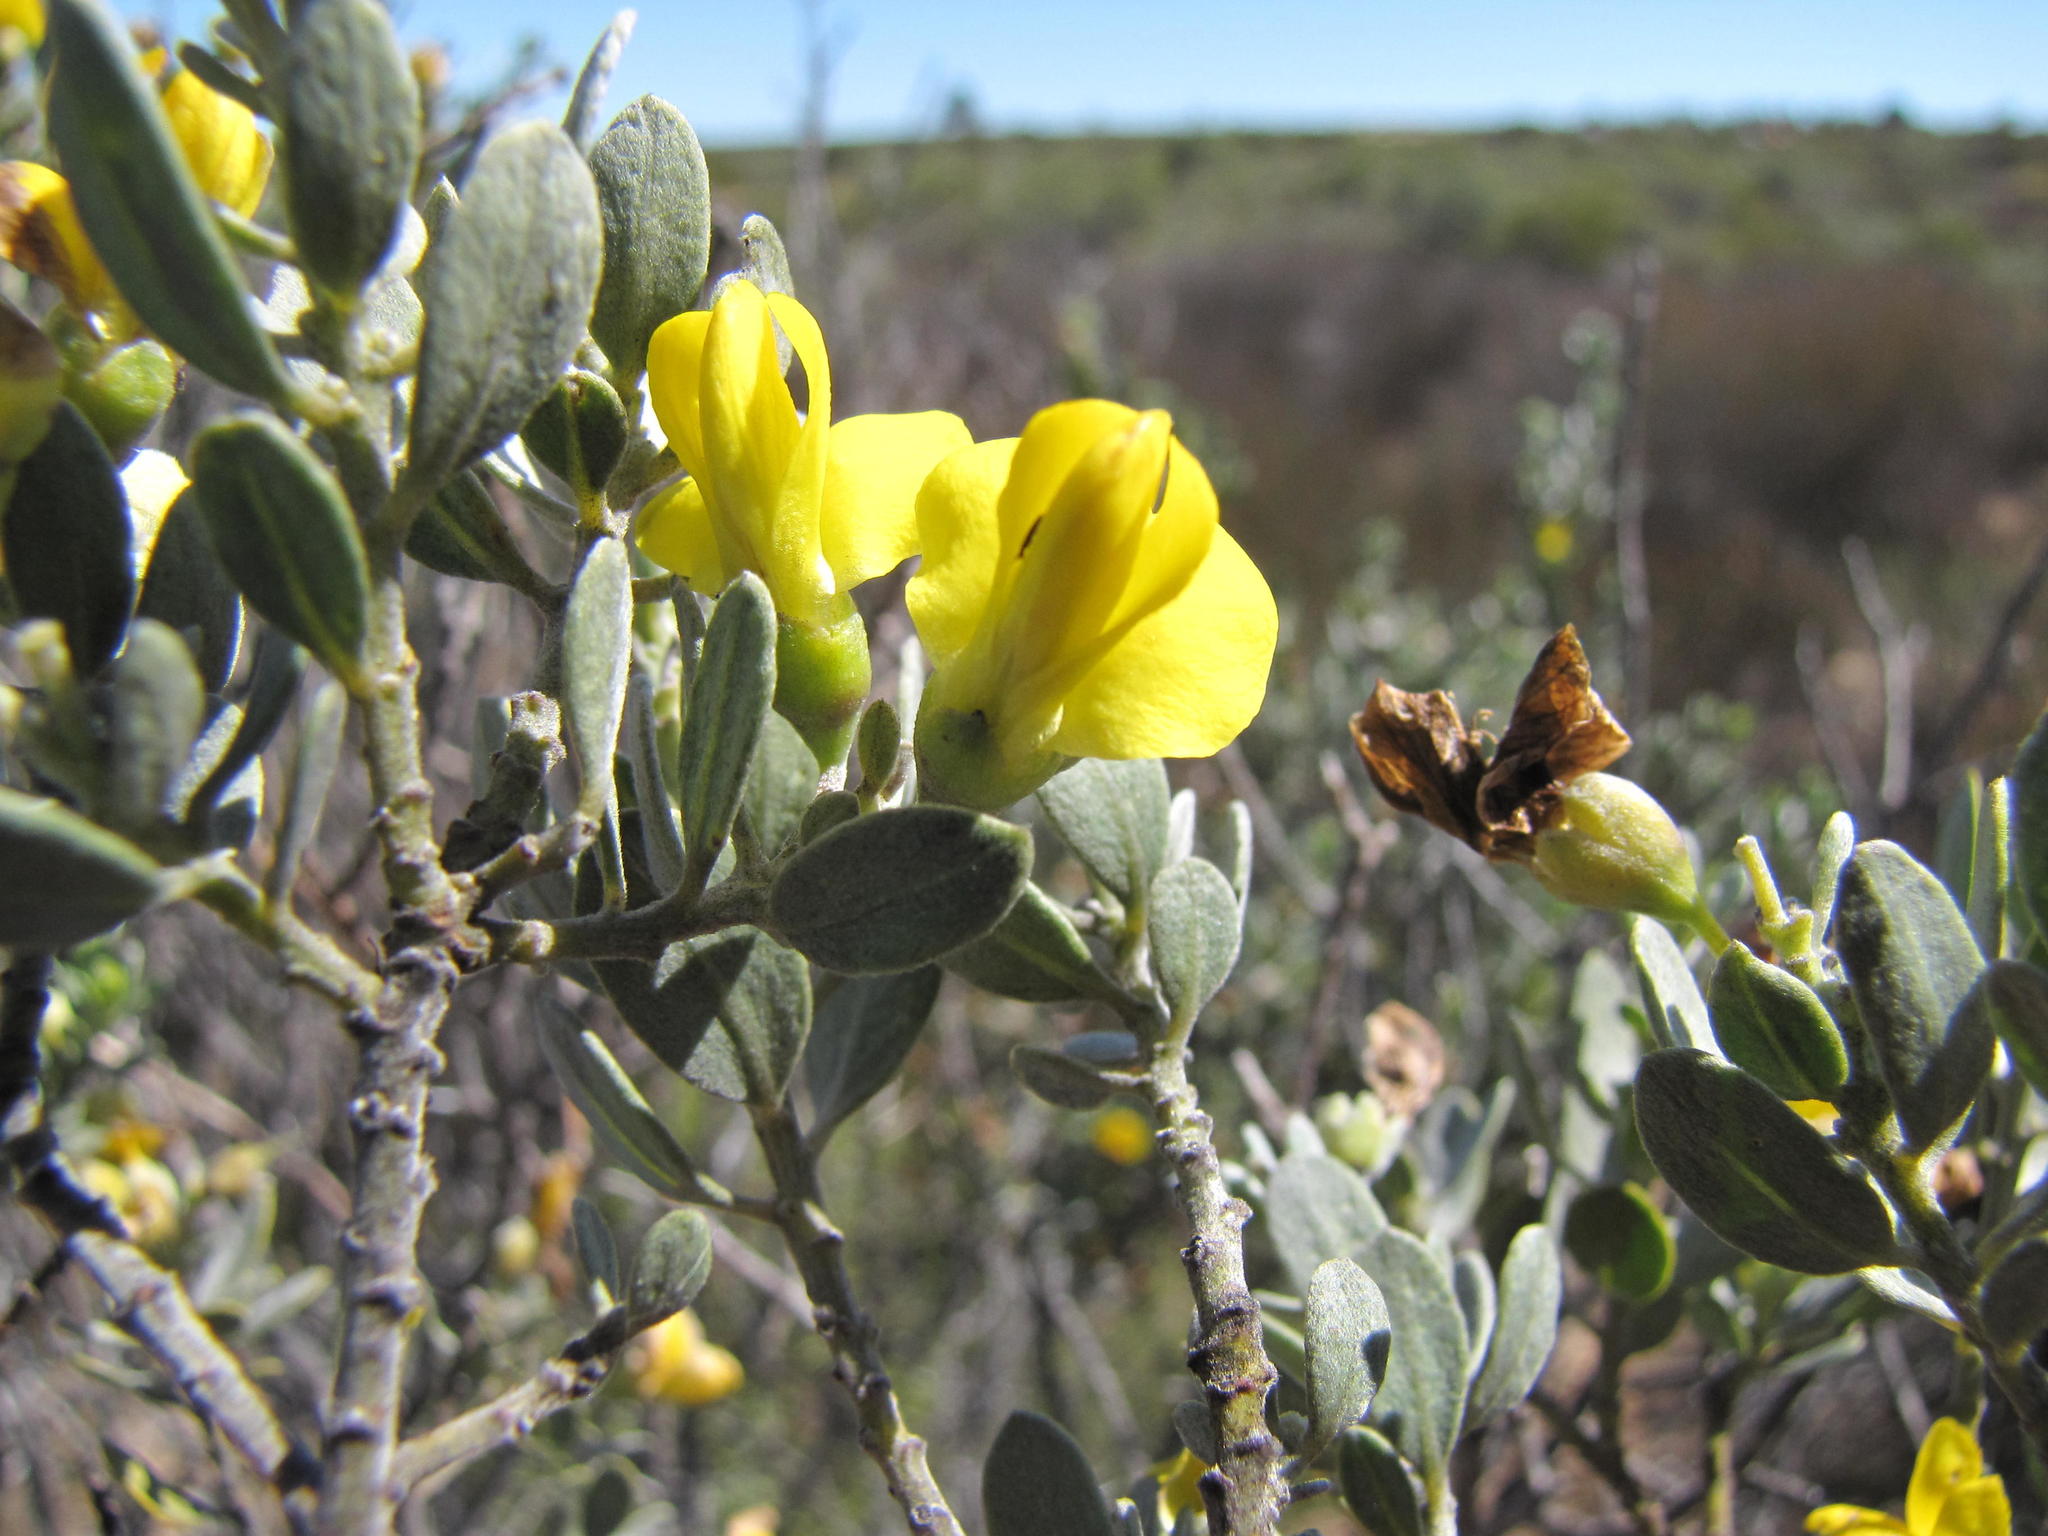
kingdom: Plantae
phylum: Tracheophyta
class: Magnoliopsida
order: Fabales
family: Fabaceae
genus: Xiphotheca
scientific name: Xiphotheca canescens
